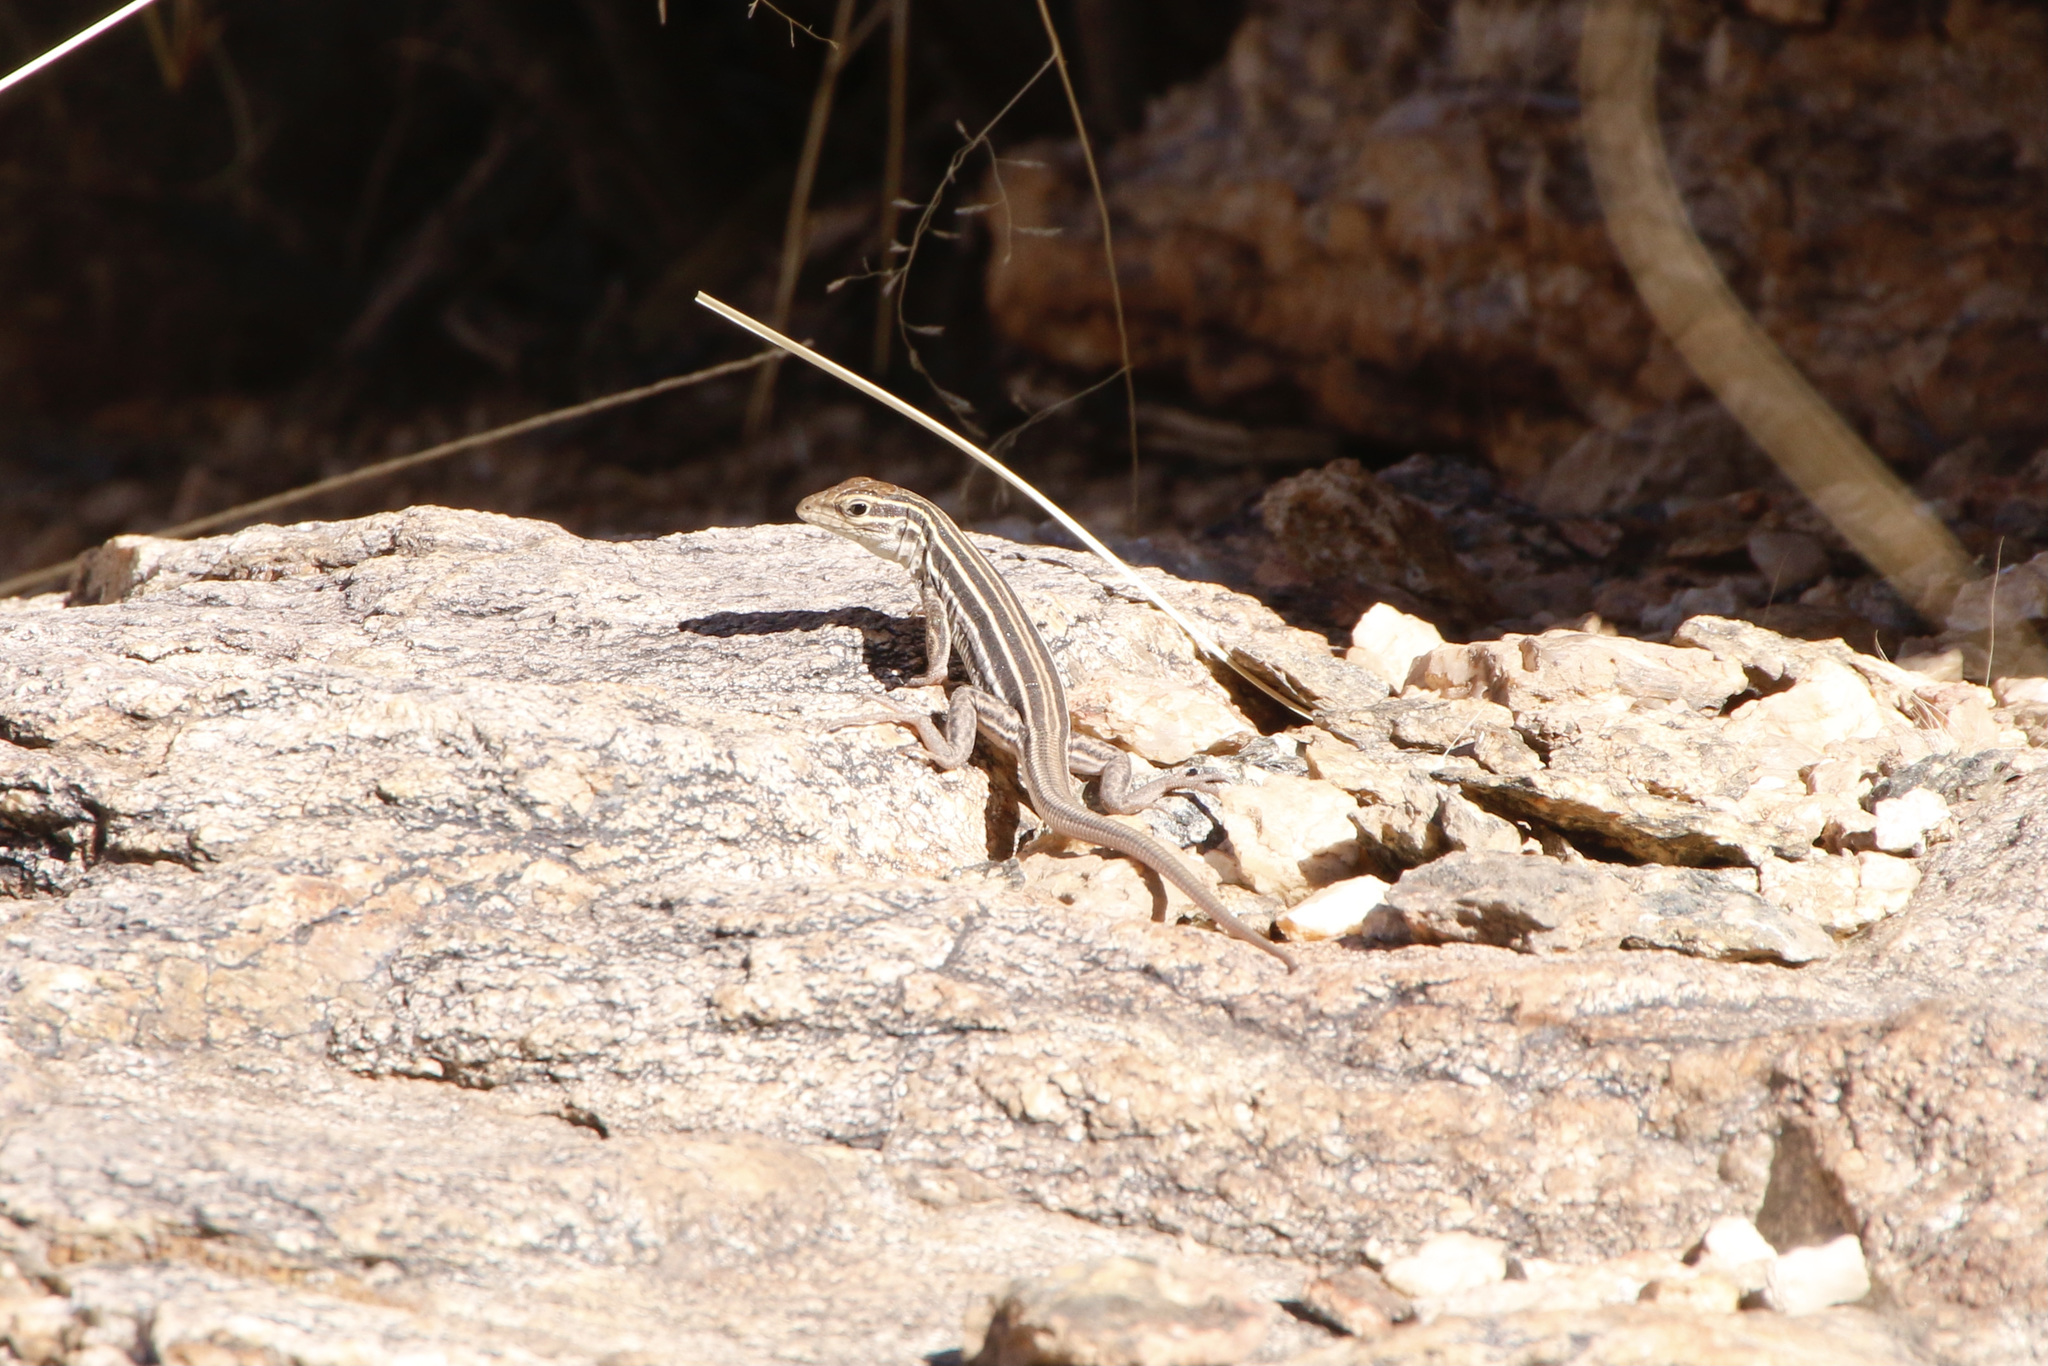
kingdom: Animalia
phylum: Chordata
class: Squamata
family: Teiidae
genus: Aspidoscelis
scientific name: Aspidoscelis sonorae
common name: Sonoran spotted whiptail
